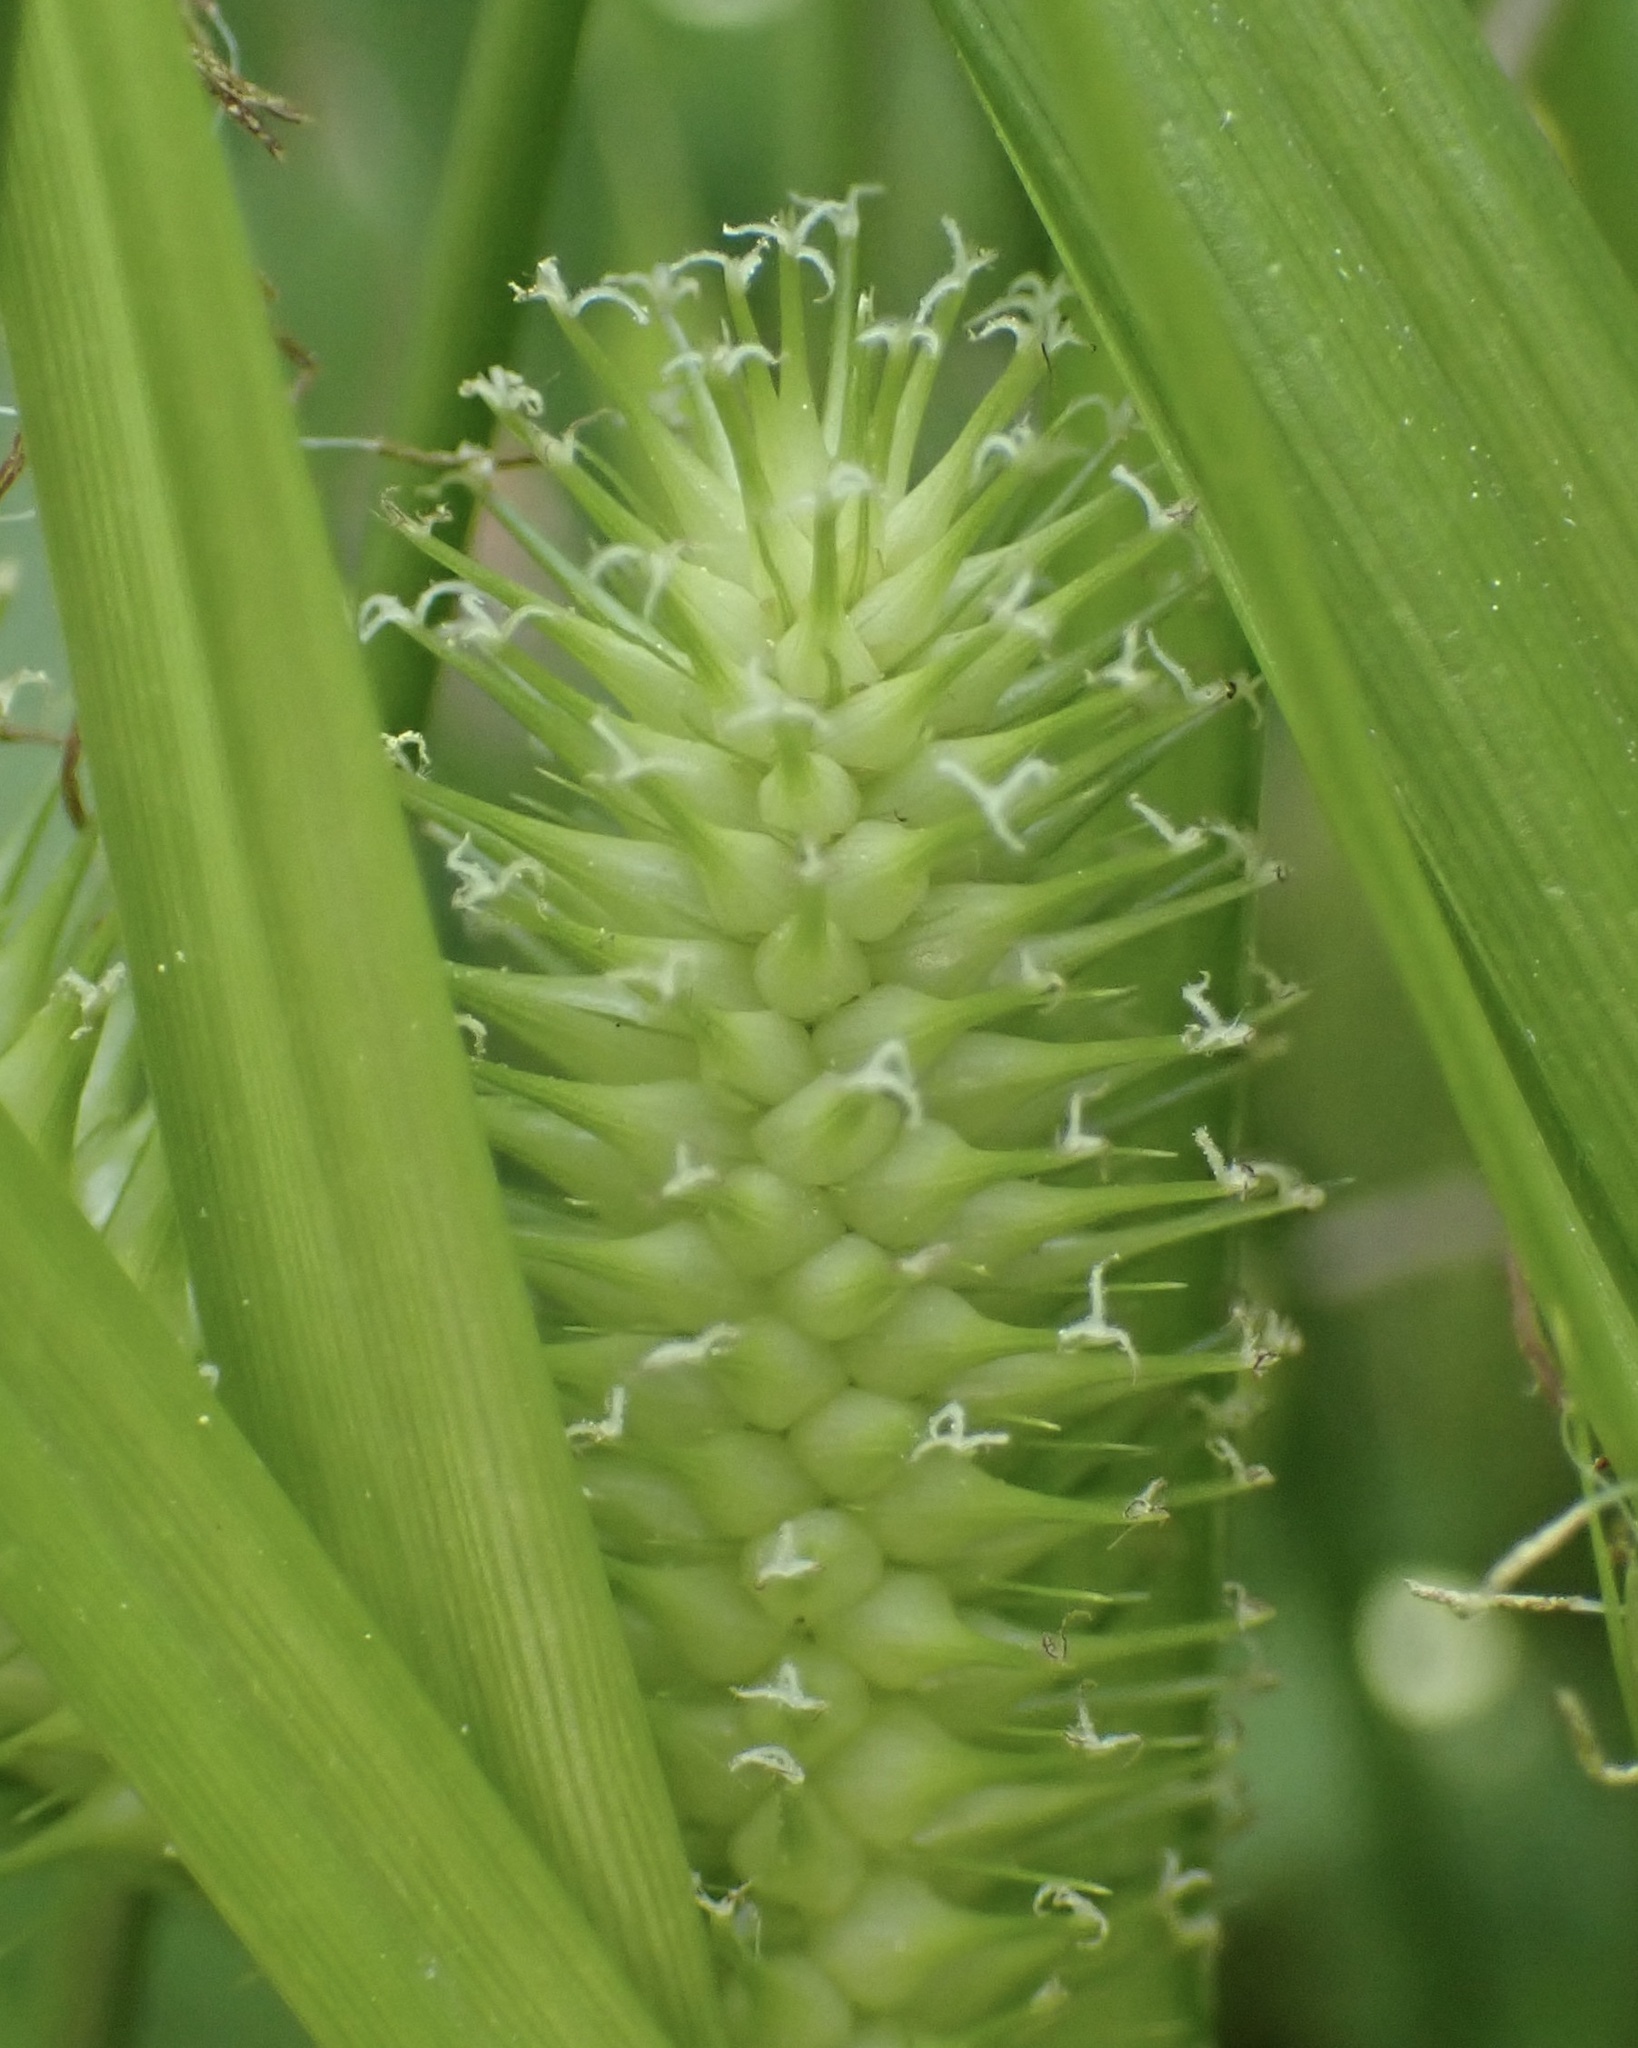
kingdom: Plantae
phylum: Tracheophyta
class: Liliopsida
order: Poales
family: Cyperaceae
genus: Carex
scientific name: Carex lurida
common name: Sallow sedge
